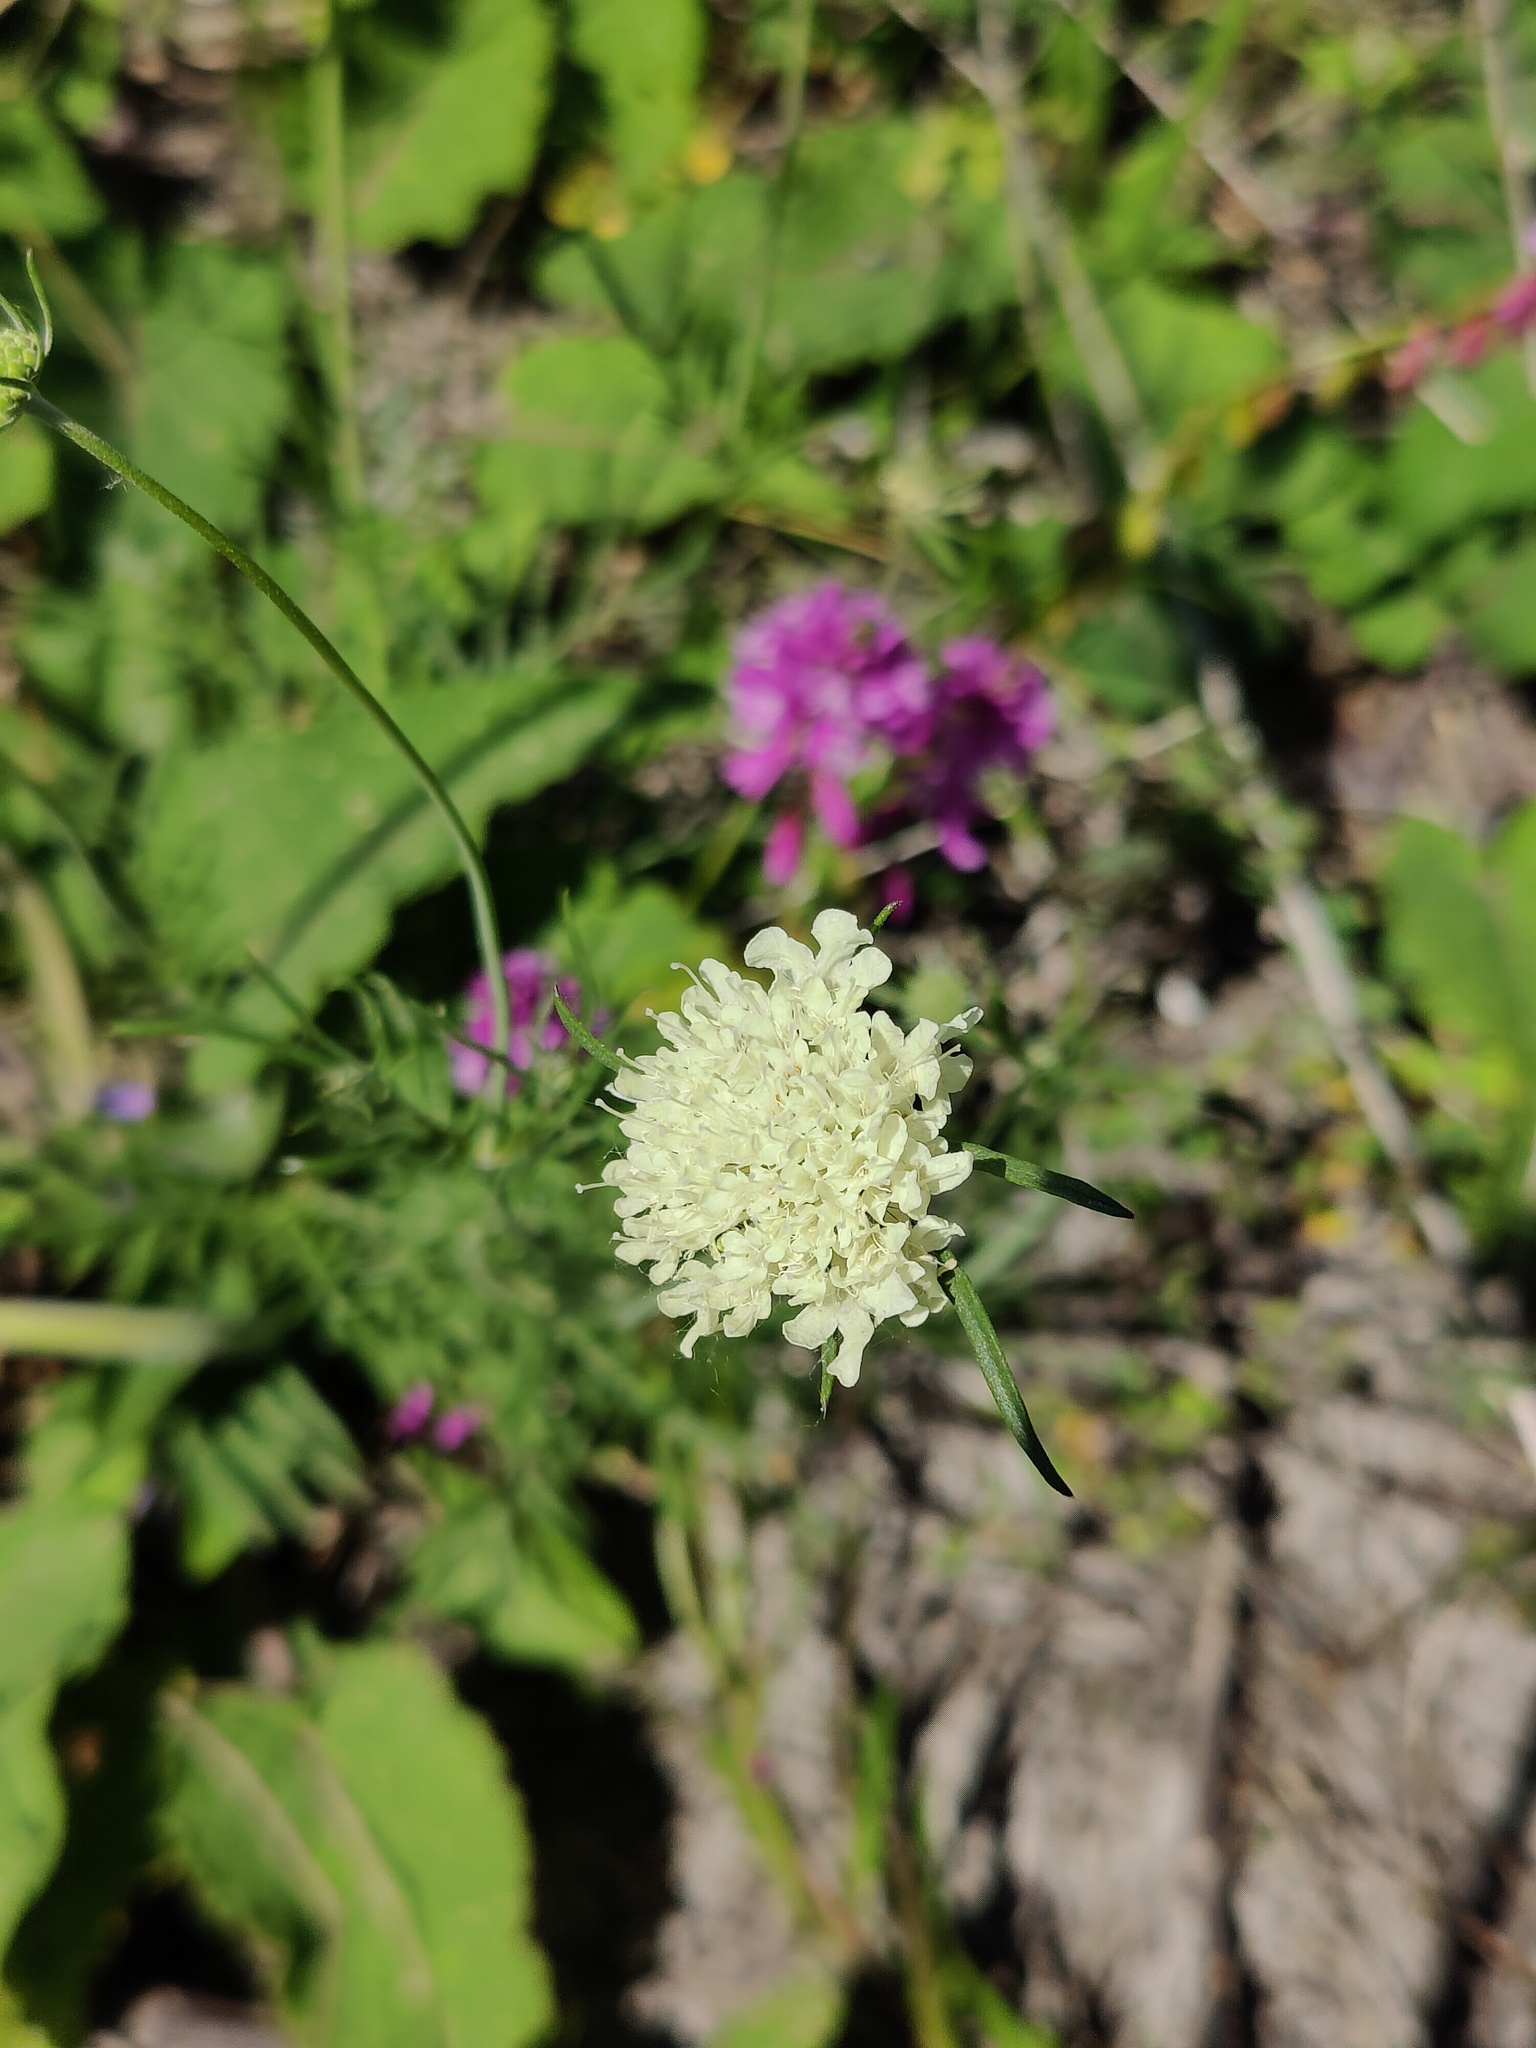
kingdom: Plantae
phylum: Tracheophyta
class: Magnoliopsida
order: Dipsacales
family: Caprifoliaceae
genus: Scabiosa
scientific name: Scabiosa ochroleuca
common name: Cream pincushions
